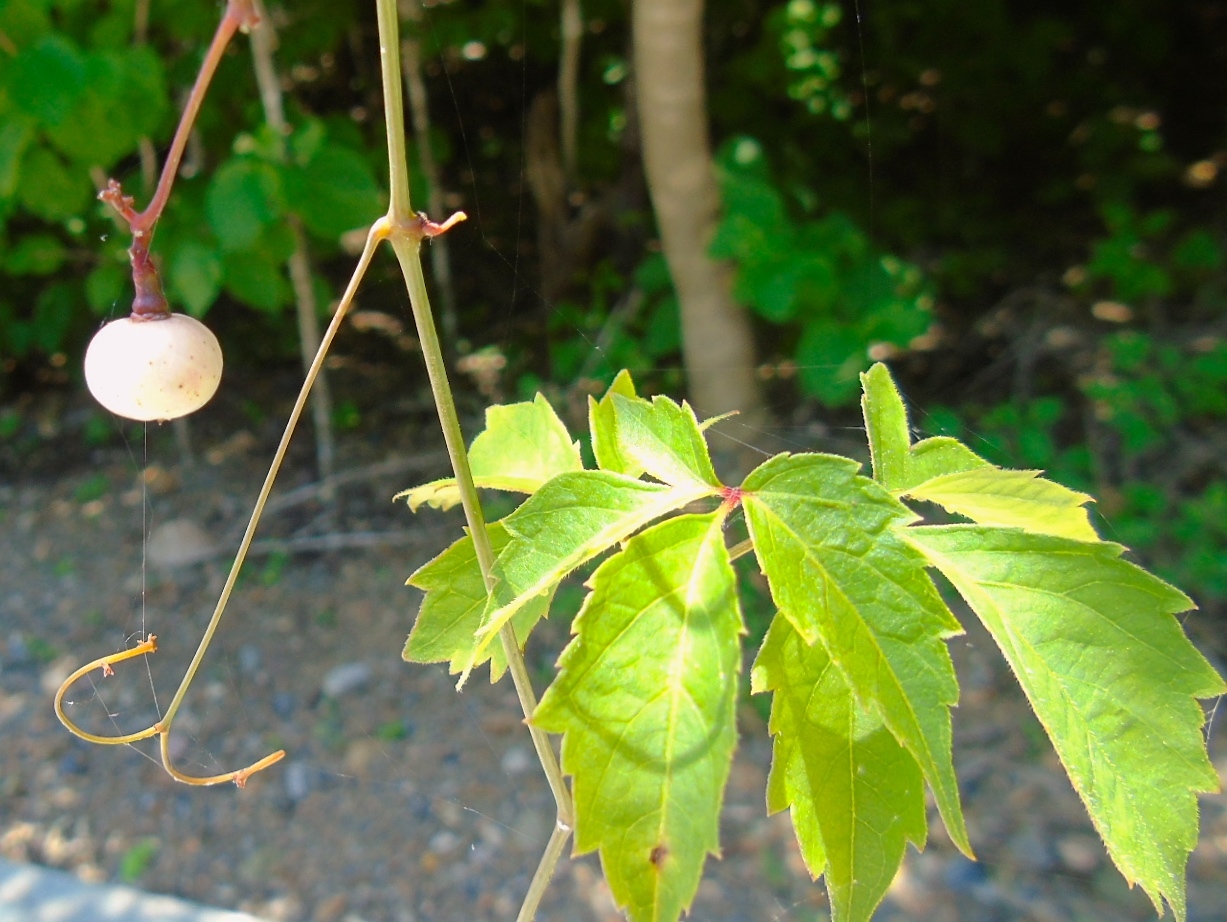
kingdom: Plantae
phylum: Tracheophyta
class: Magnoliopsida
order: Vitales
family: Vitaceae
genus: Ampelopsis
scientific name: Ampelopsis denudata
